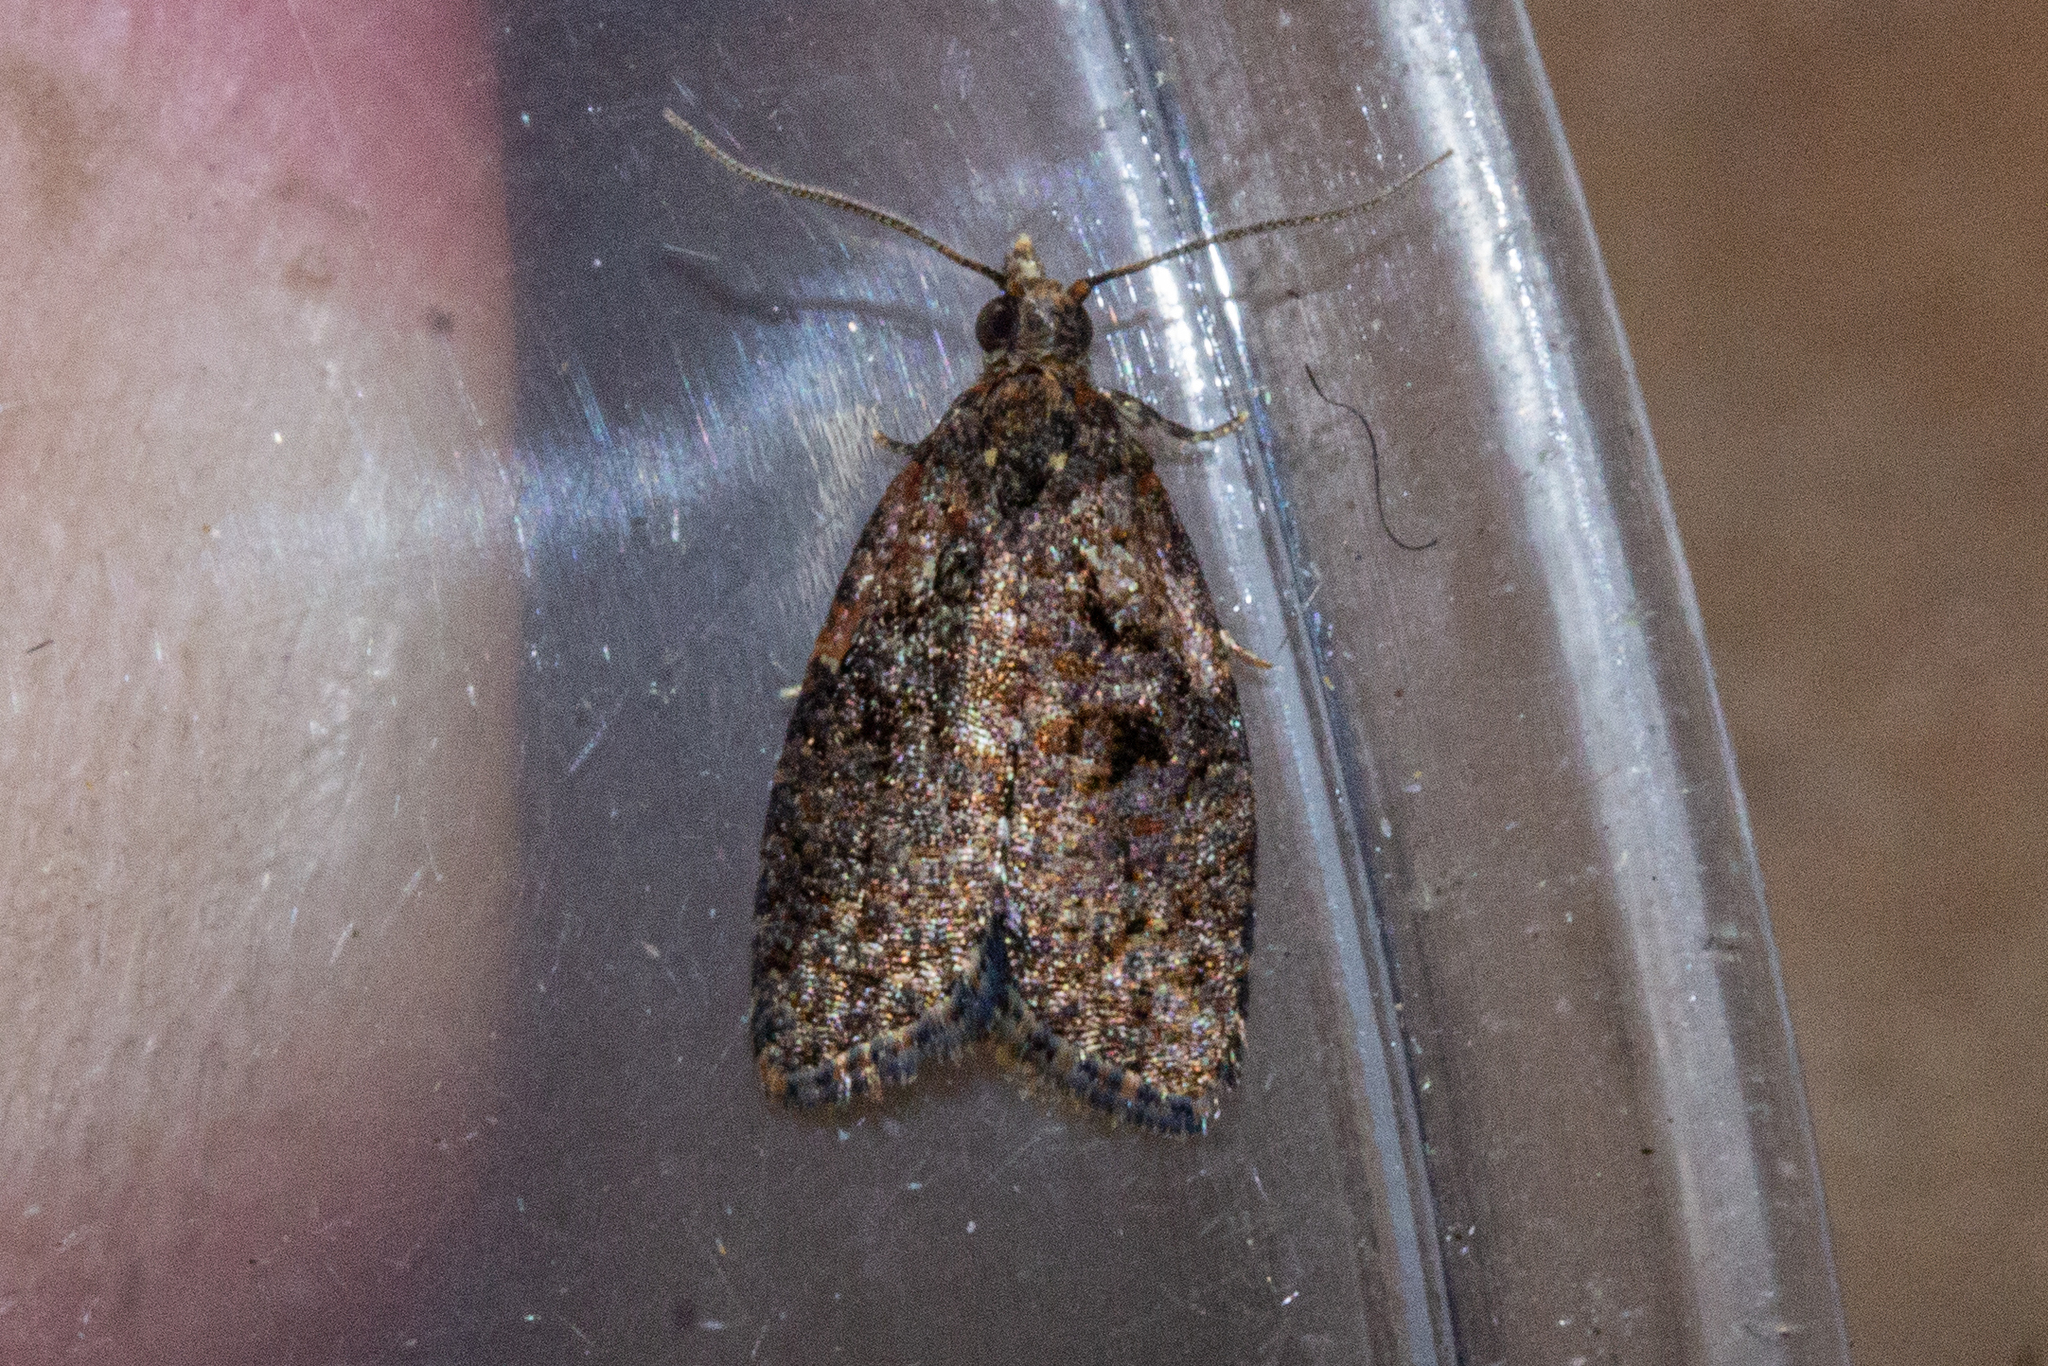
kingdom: Animalia
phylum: Arthropoda
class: Insecta
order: Lepidoptera
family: Tortricidae
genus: Capua
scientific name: Capua intractana
